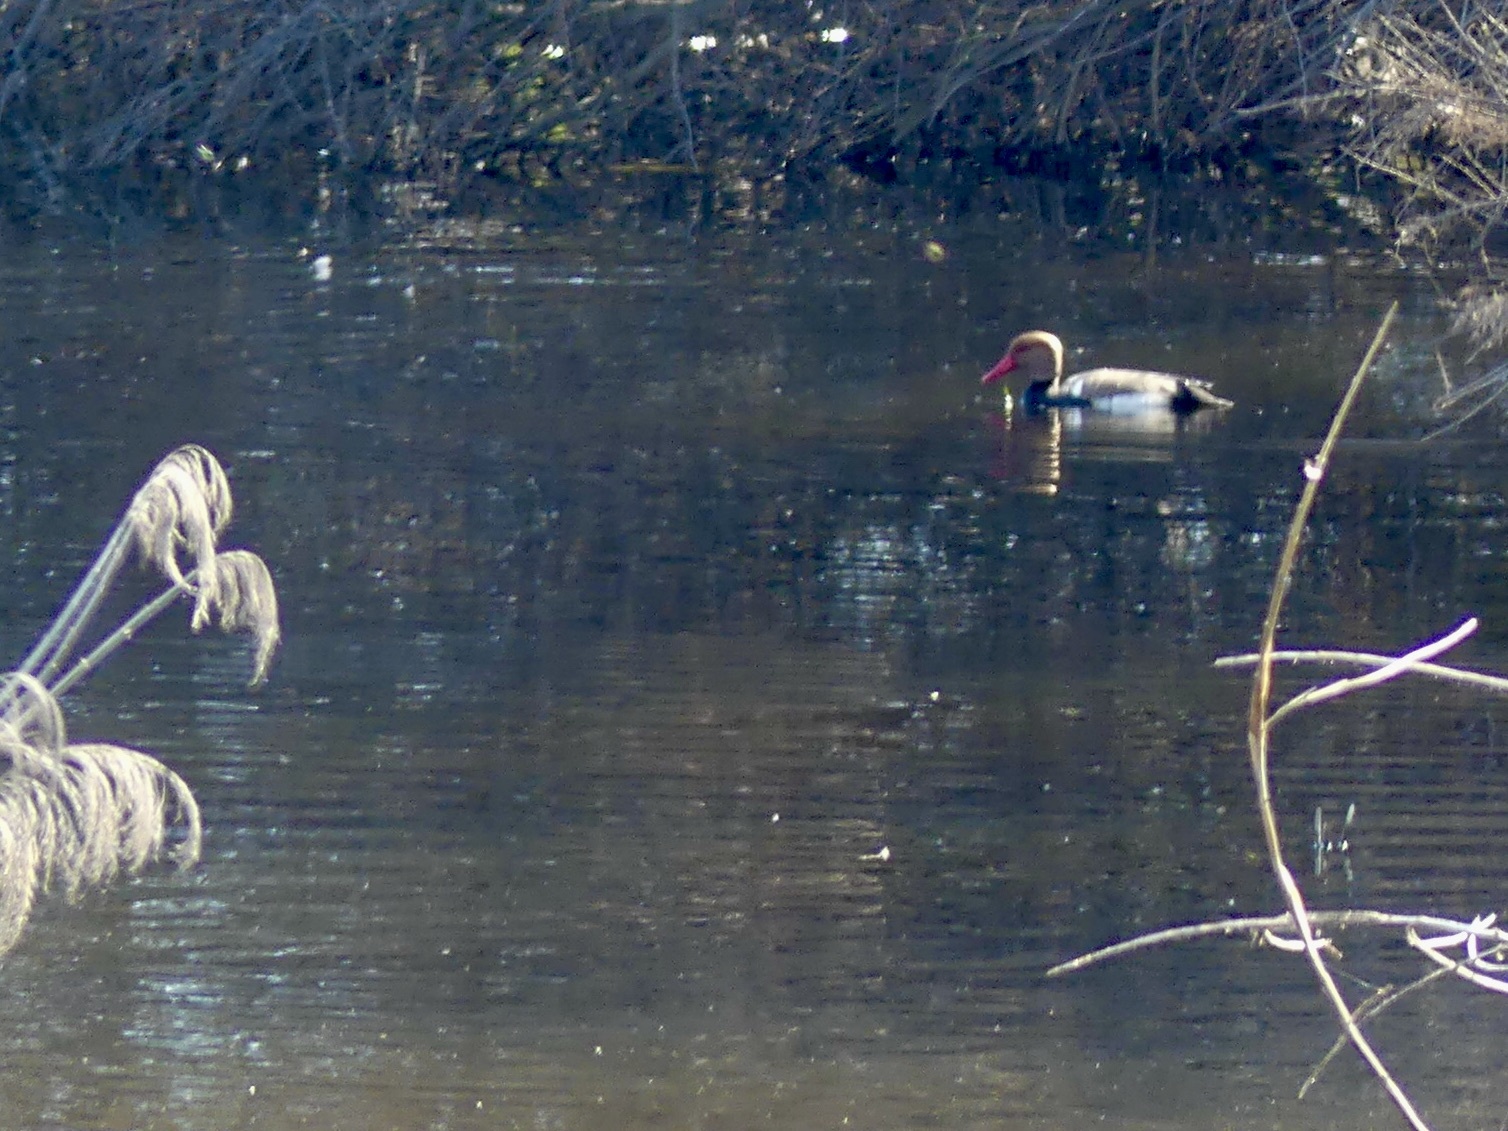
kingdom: Animalia
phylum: Chordata
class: Aves
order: Anseriformes
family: Anatidae
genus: Netta
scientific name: Netta rufina
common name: Red-crested pochard
